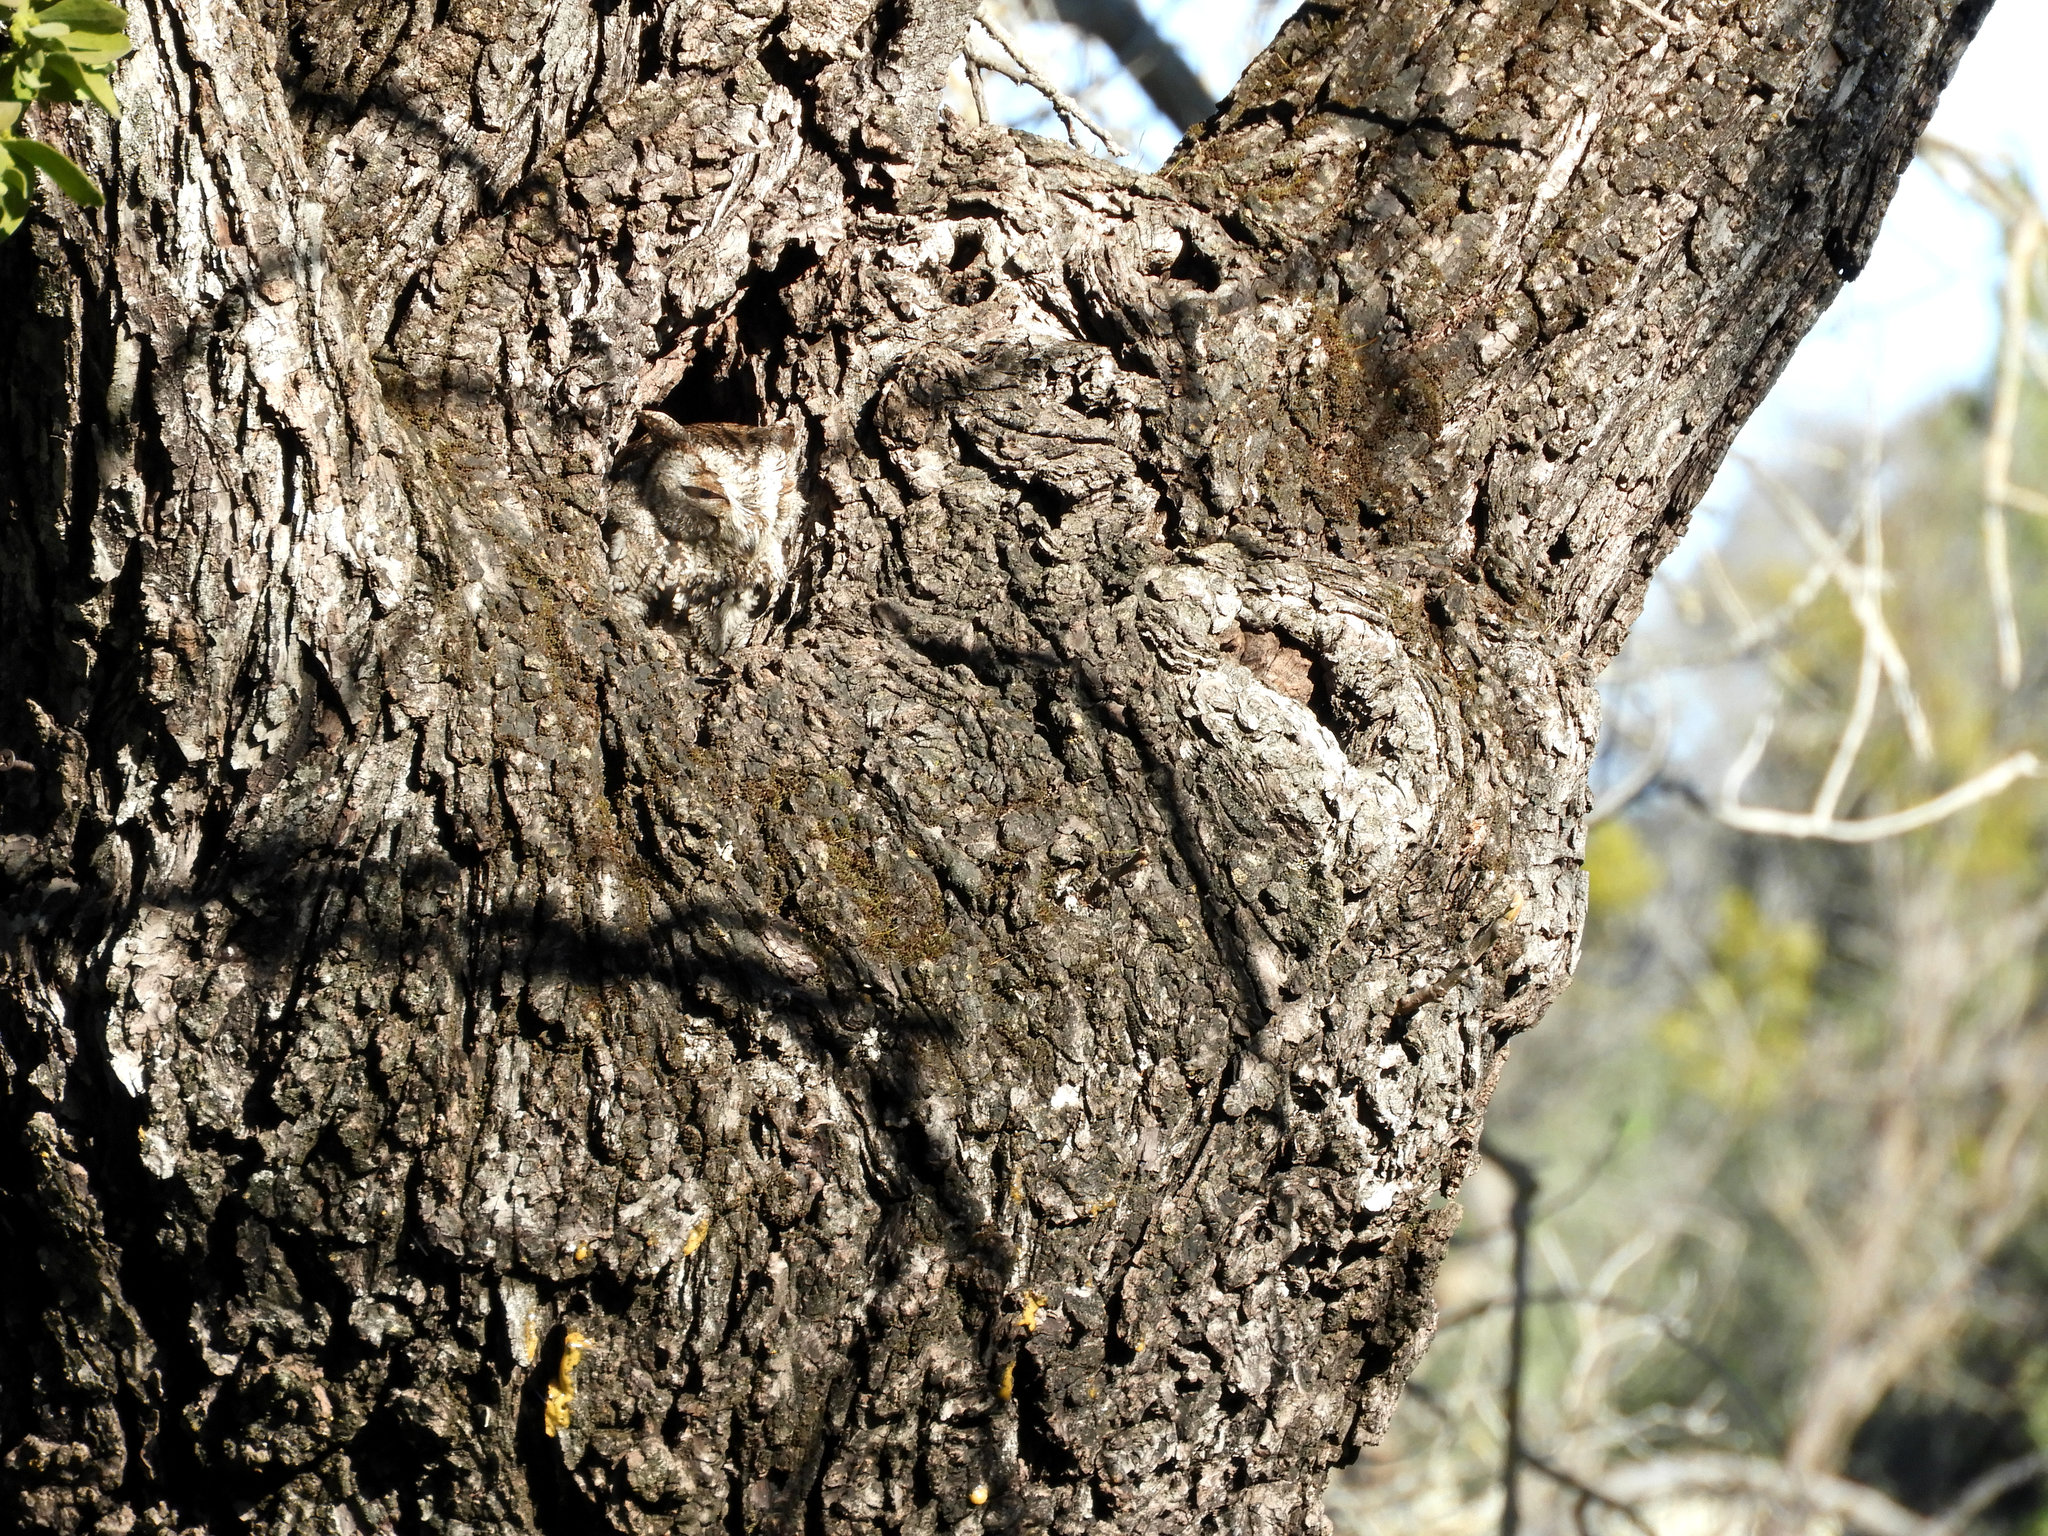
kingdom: Animalia
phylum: Chordata
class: Aves
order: Strigiformes
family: Strigidae
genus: Megascops
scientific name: Megascops kennicottii
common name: Western screech-owl
